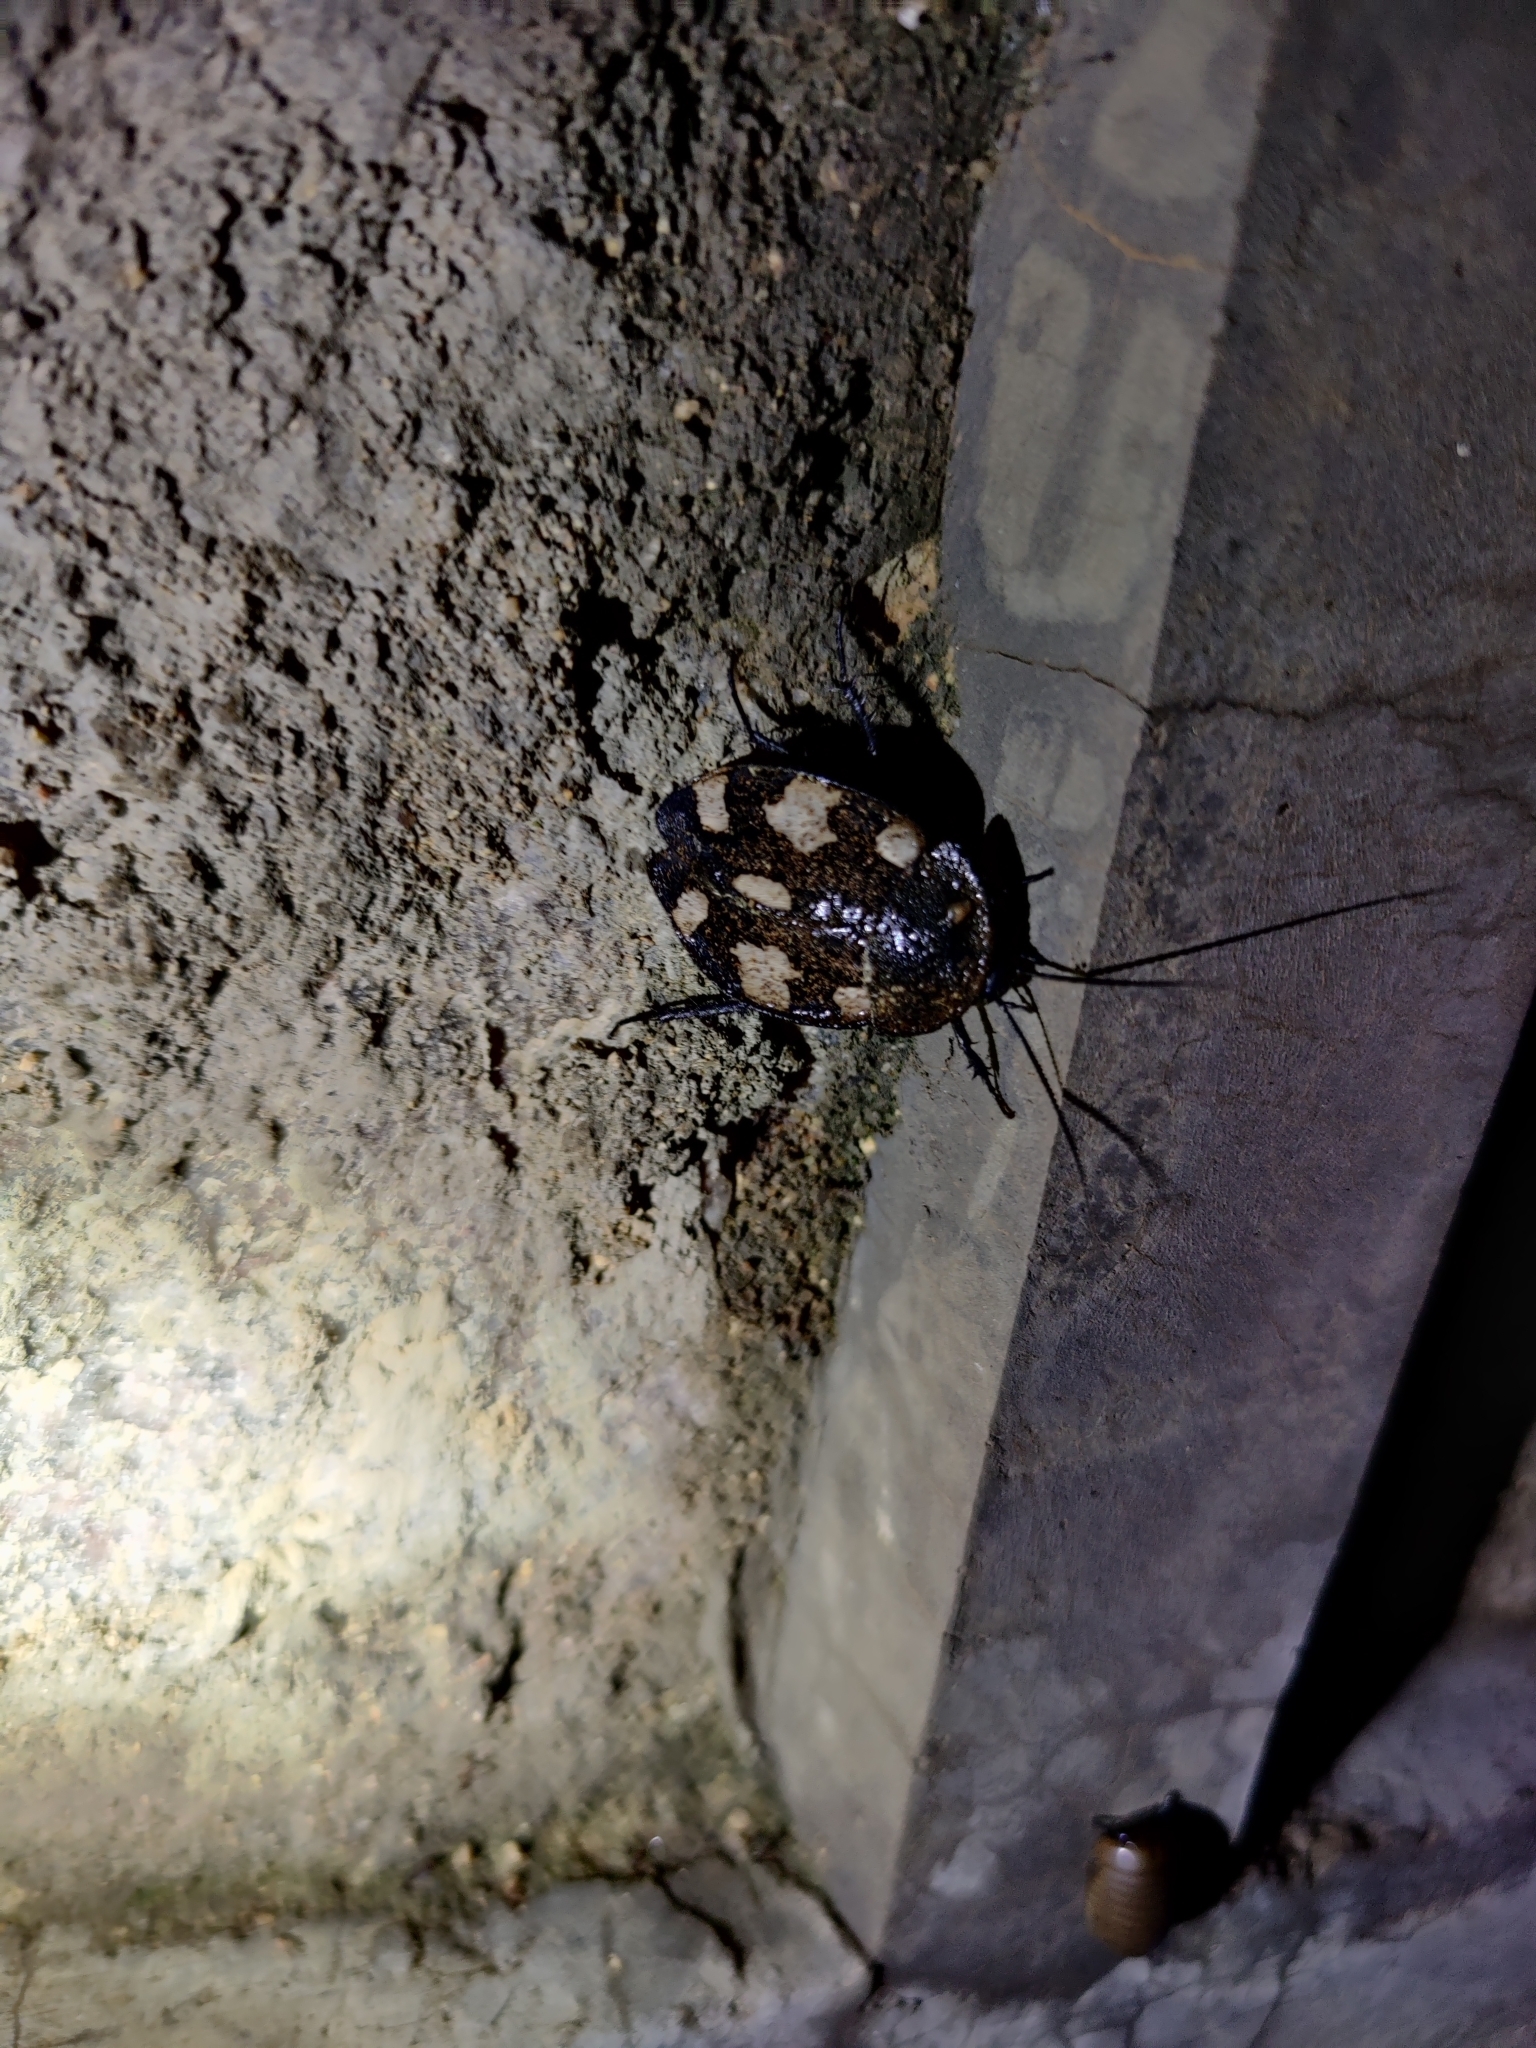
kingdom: Animalia
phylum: Arthropoda
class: Insecta
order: Blattodea
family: Corydiidae
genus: Therea
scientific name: Therea petiveriana
